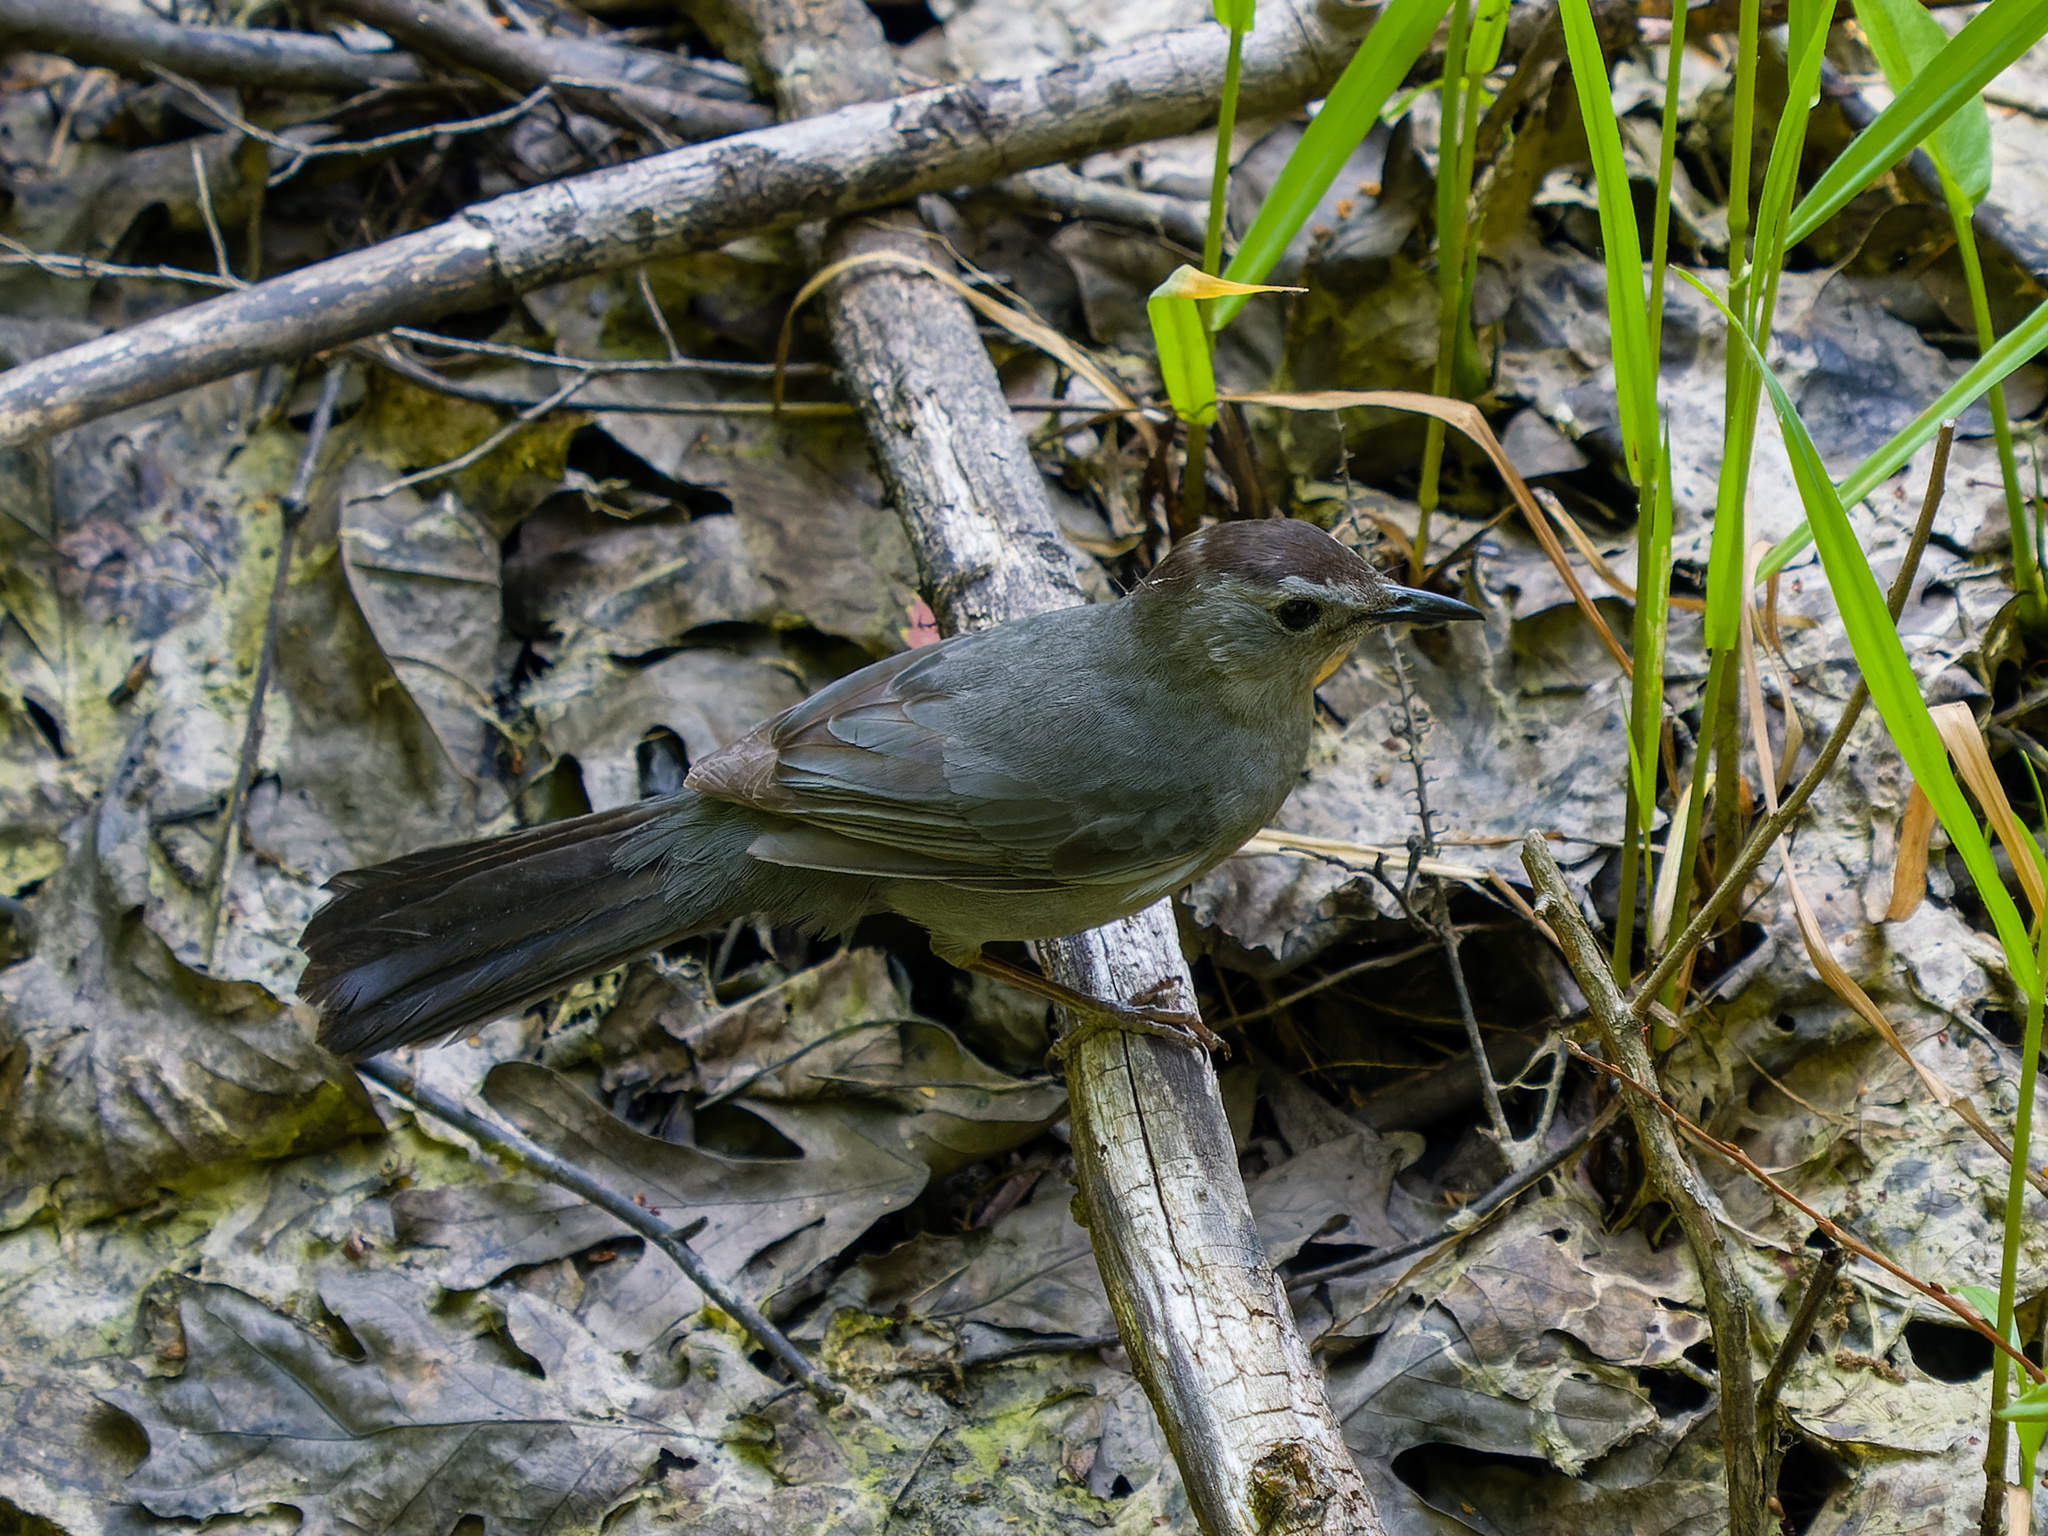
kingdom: Animalia
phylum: Chordata
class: Aves
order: Passeriformes
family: Mimidae
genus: Dumetella
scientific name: Dumetella carolinensis
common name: Gray catbird
